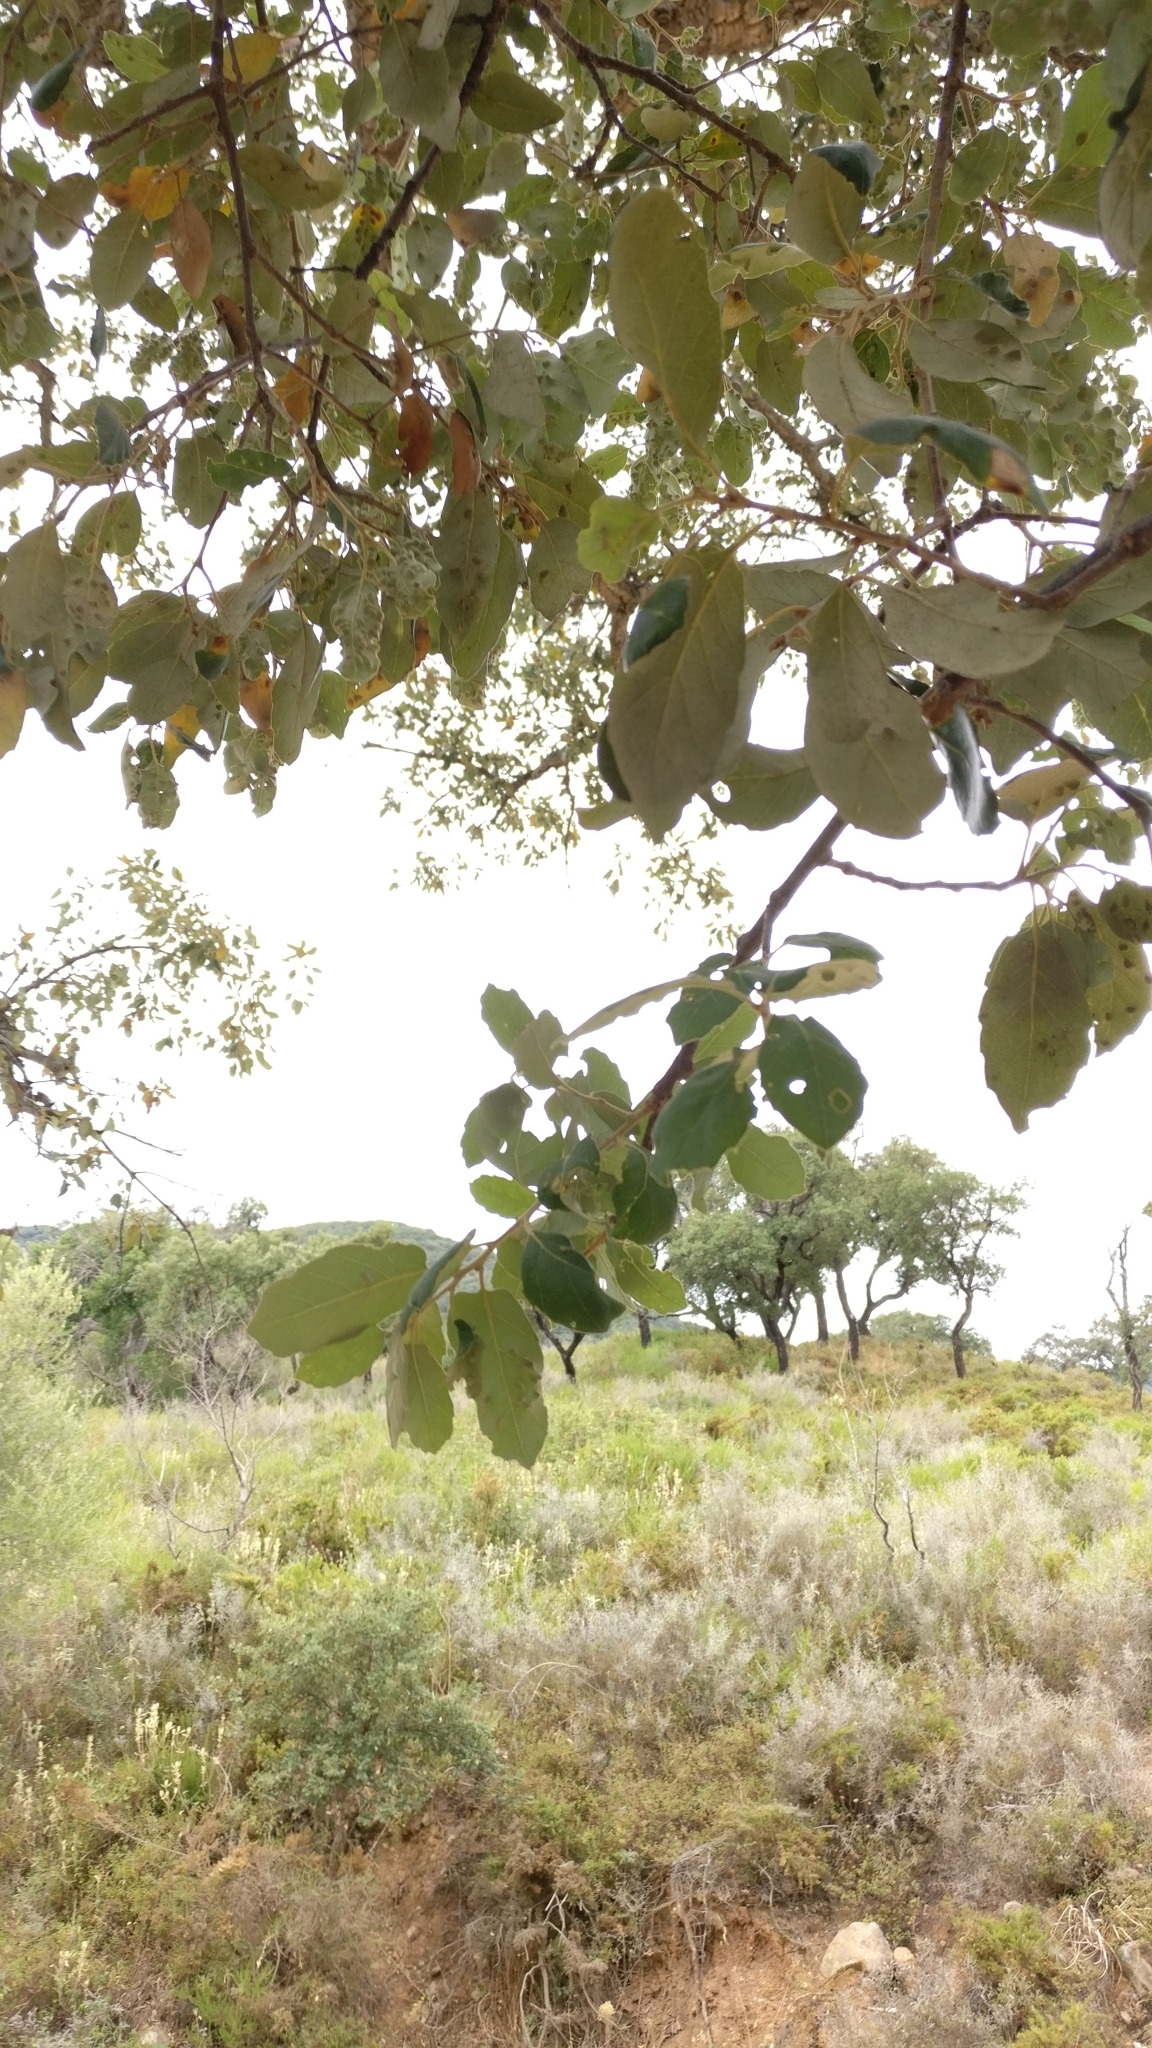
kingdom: Plantae
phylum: Tracheophyta
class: Magnoliopsida
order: Fagales
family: Fagaceae
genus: Quercus
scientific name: Quercus suber
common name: Cork oak
